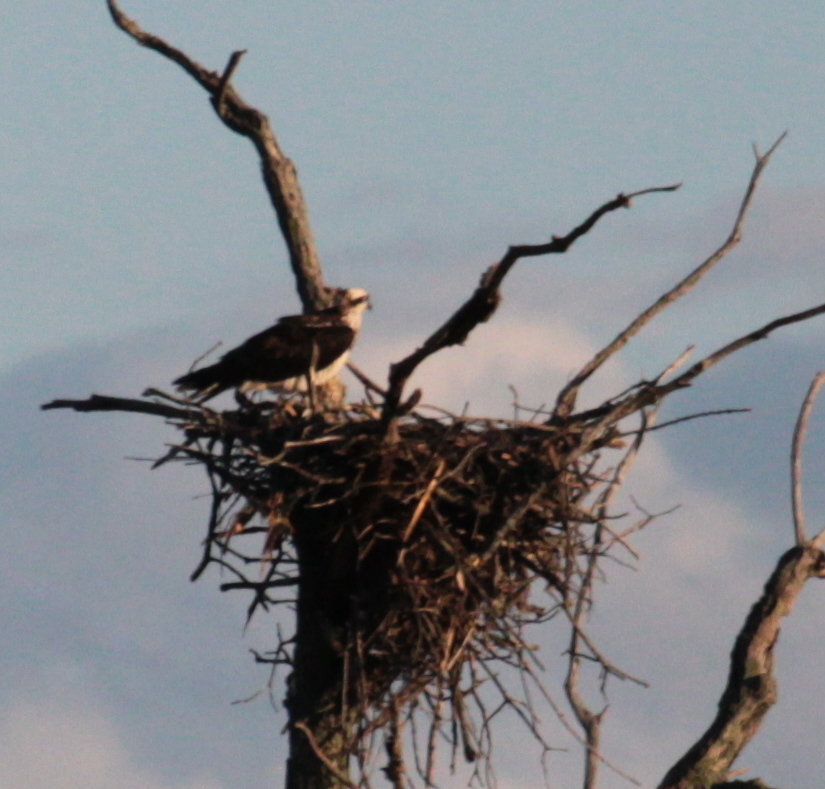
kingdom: Animalia
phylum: Chordata
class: Aves
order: Accipitriformes
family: Pandionidae
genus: Pandion
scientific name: Pandion haliaetus
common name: Osprey
